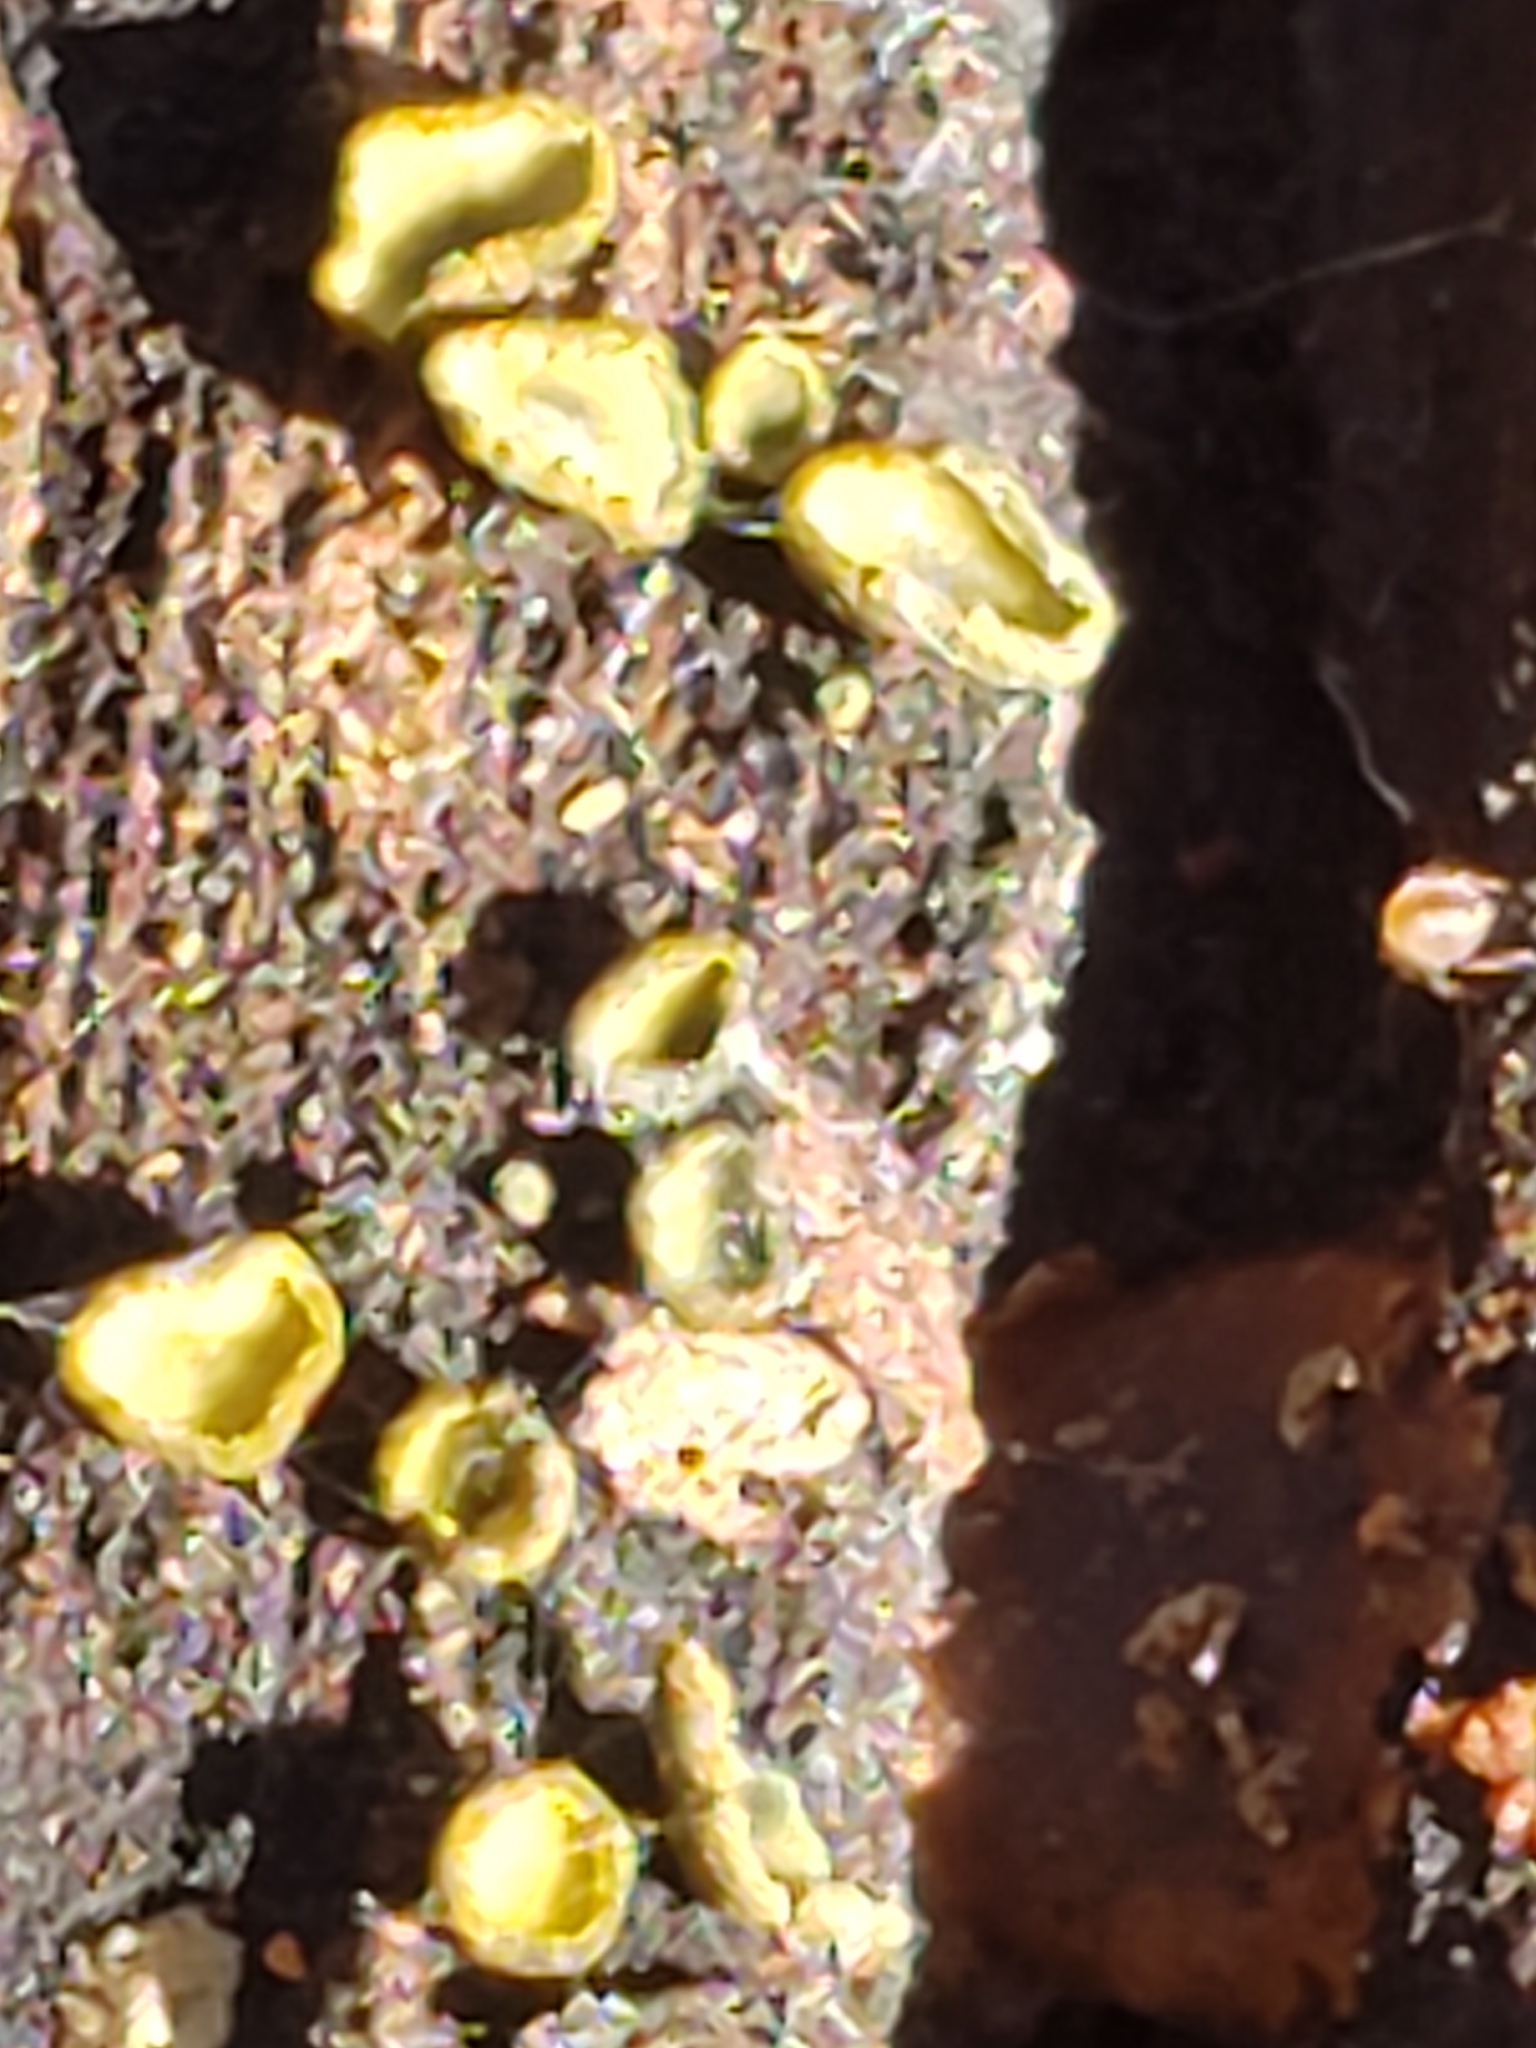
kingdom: Fungi
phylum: Ascomycota
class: Leotiomycetes
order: Helotiales
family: Chlorospleniaceae
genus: Chlorosplenium
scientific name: Chlorosplenium chlora
